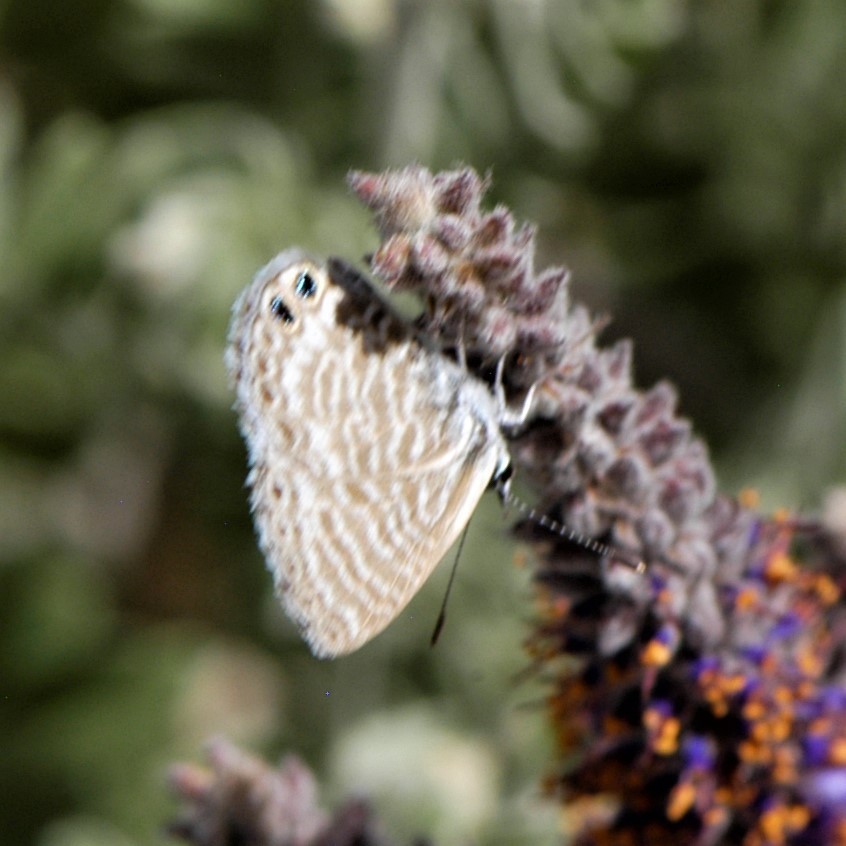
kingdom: Animalia
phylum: Arthropoda
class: Insecta
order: Lepidoptera
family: Lycaenidae
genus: Leptotes
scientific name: Leptotes marina
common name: Marine blue
